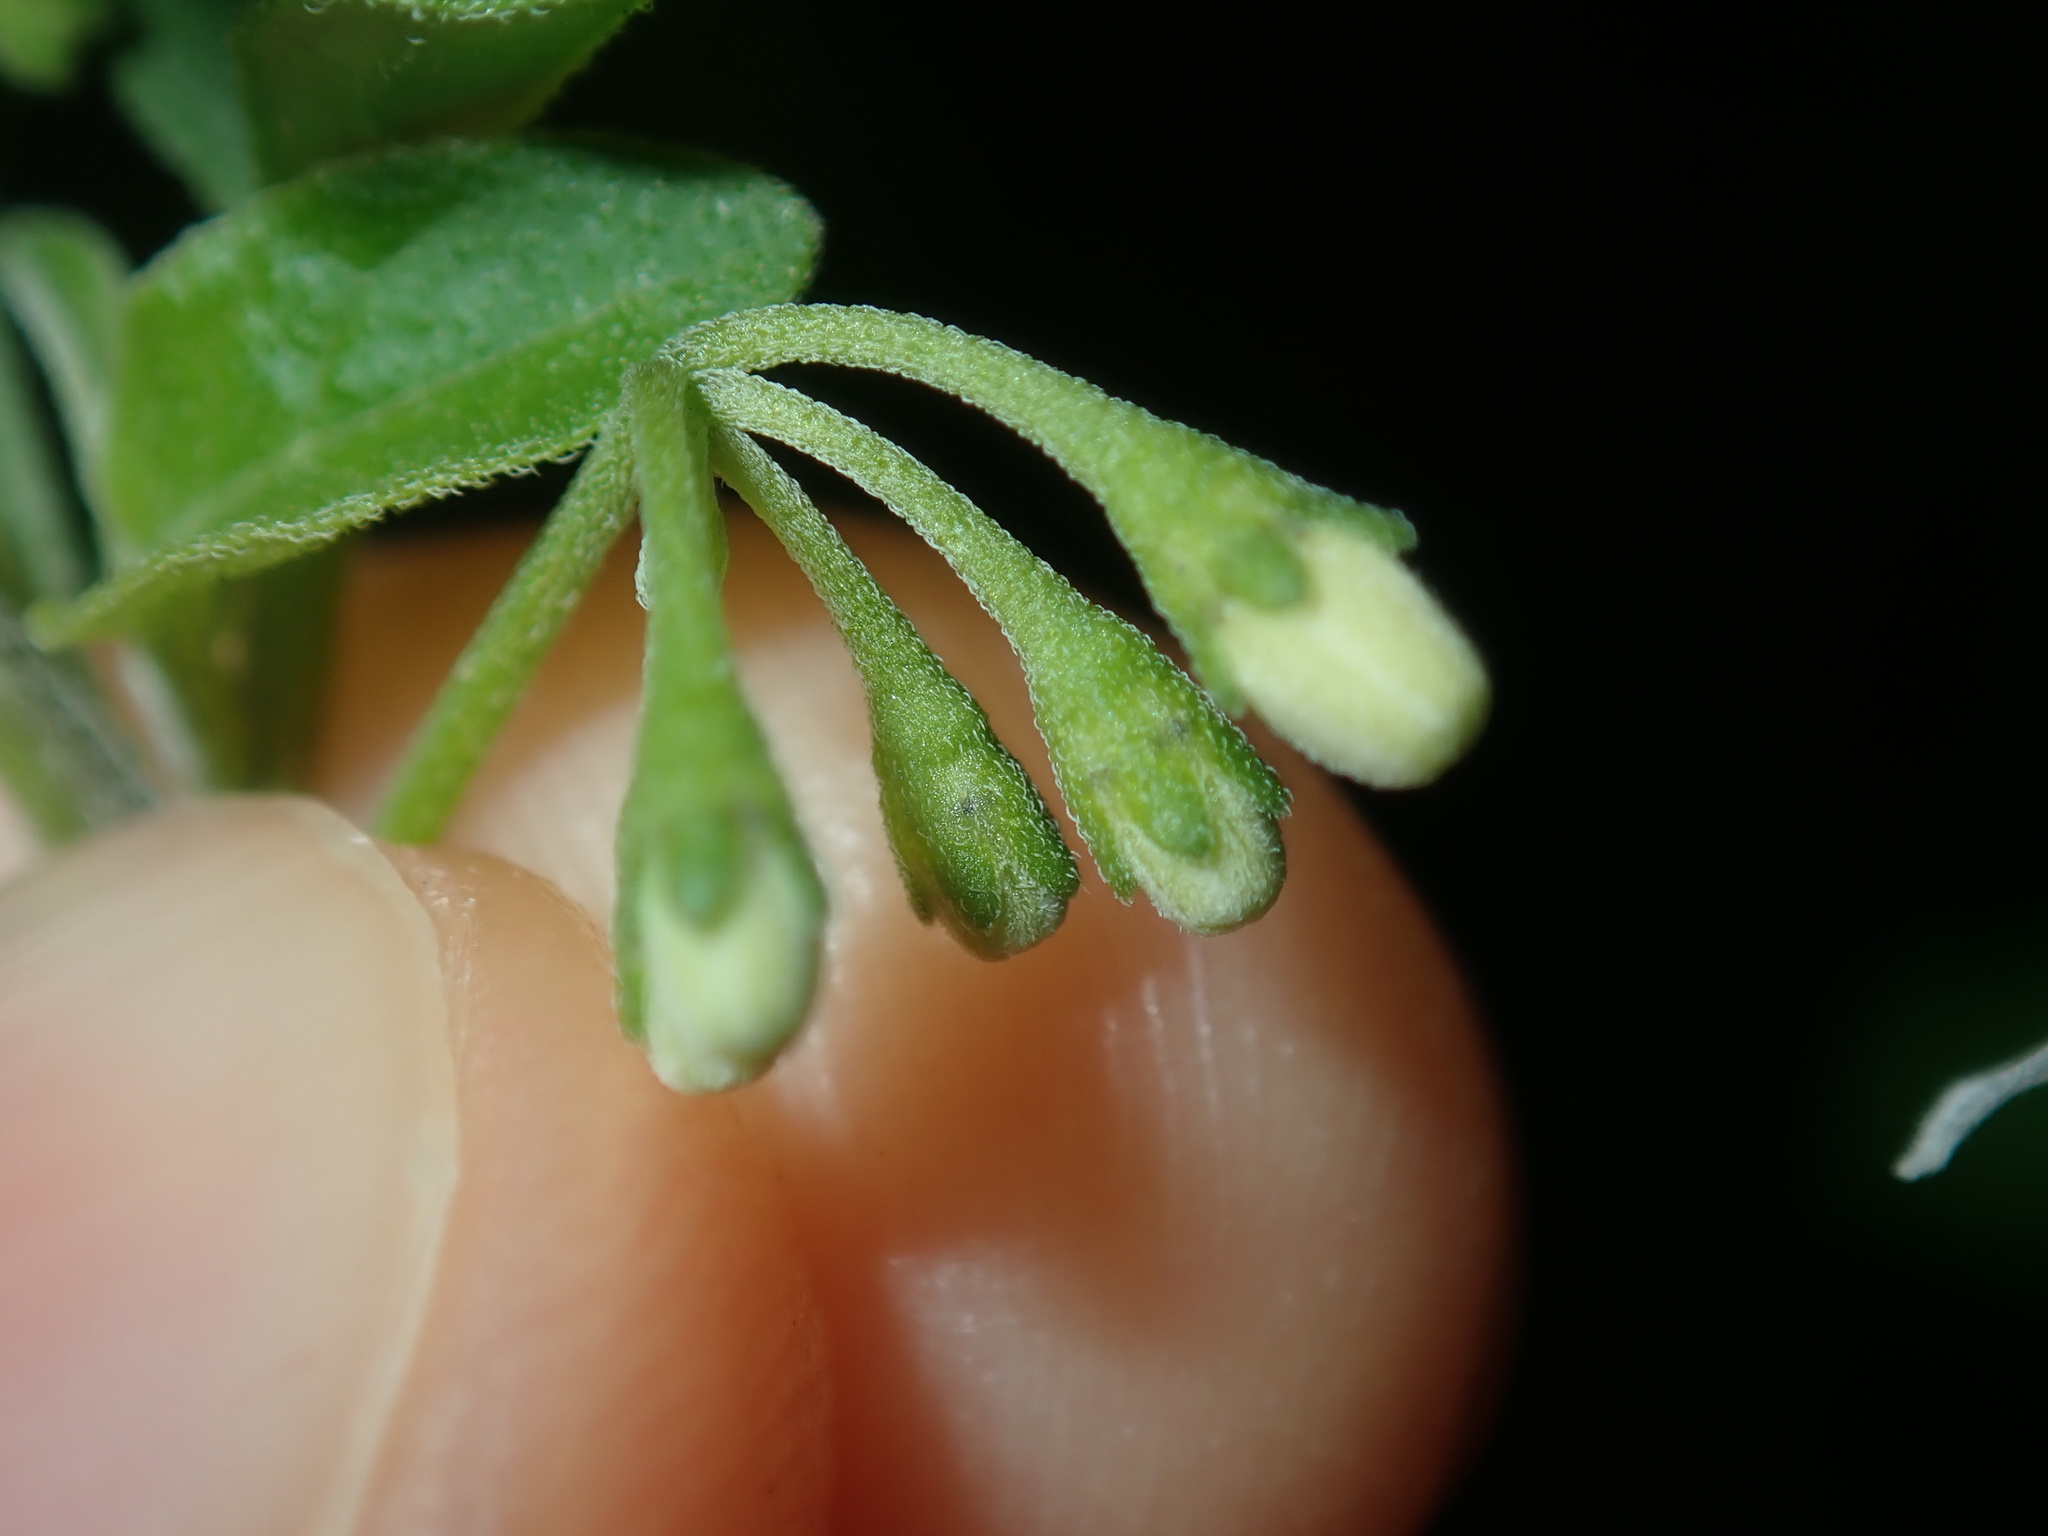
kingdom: Plantae
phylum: Tracheophyta
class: Magnoliopsida
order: Solanales
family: Solanaceae
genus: Solanum
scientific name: Solanum chenopodioides
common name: Tall nightshade
